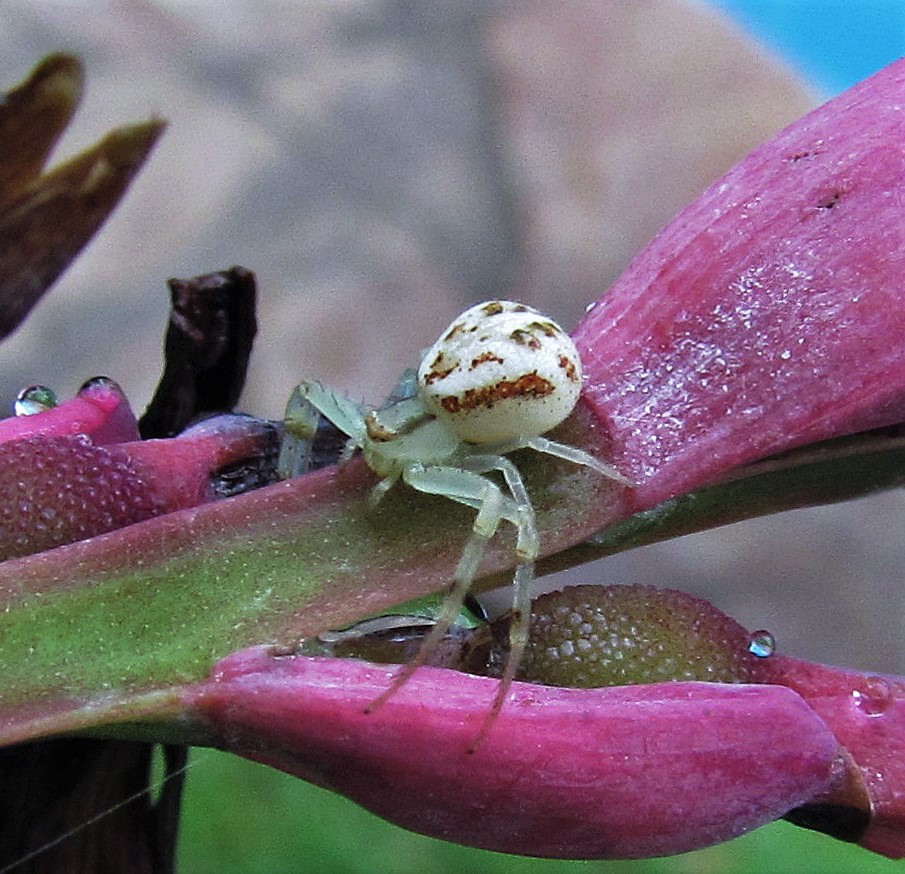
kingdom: Animalia
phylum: Arthropoda
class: Arachnida
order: Araneae
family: Thomisidae
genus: Misumenops
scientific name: Misumenops
